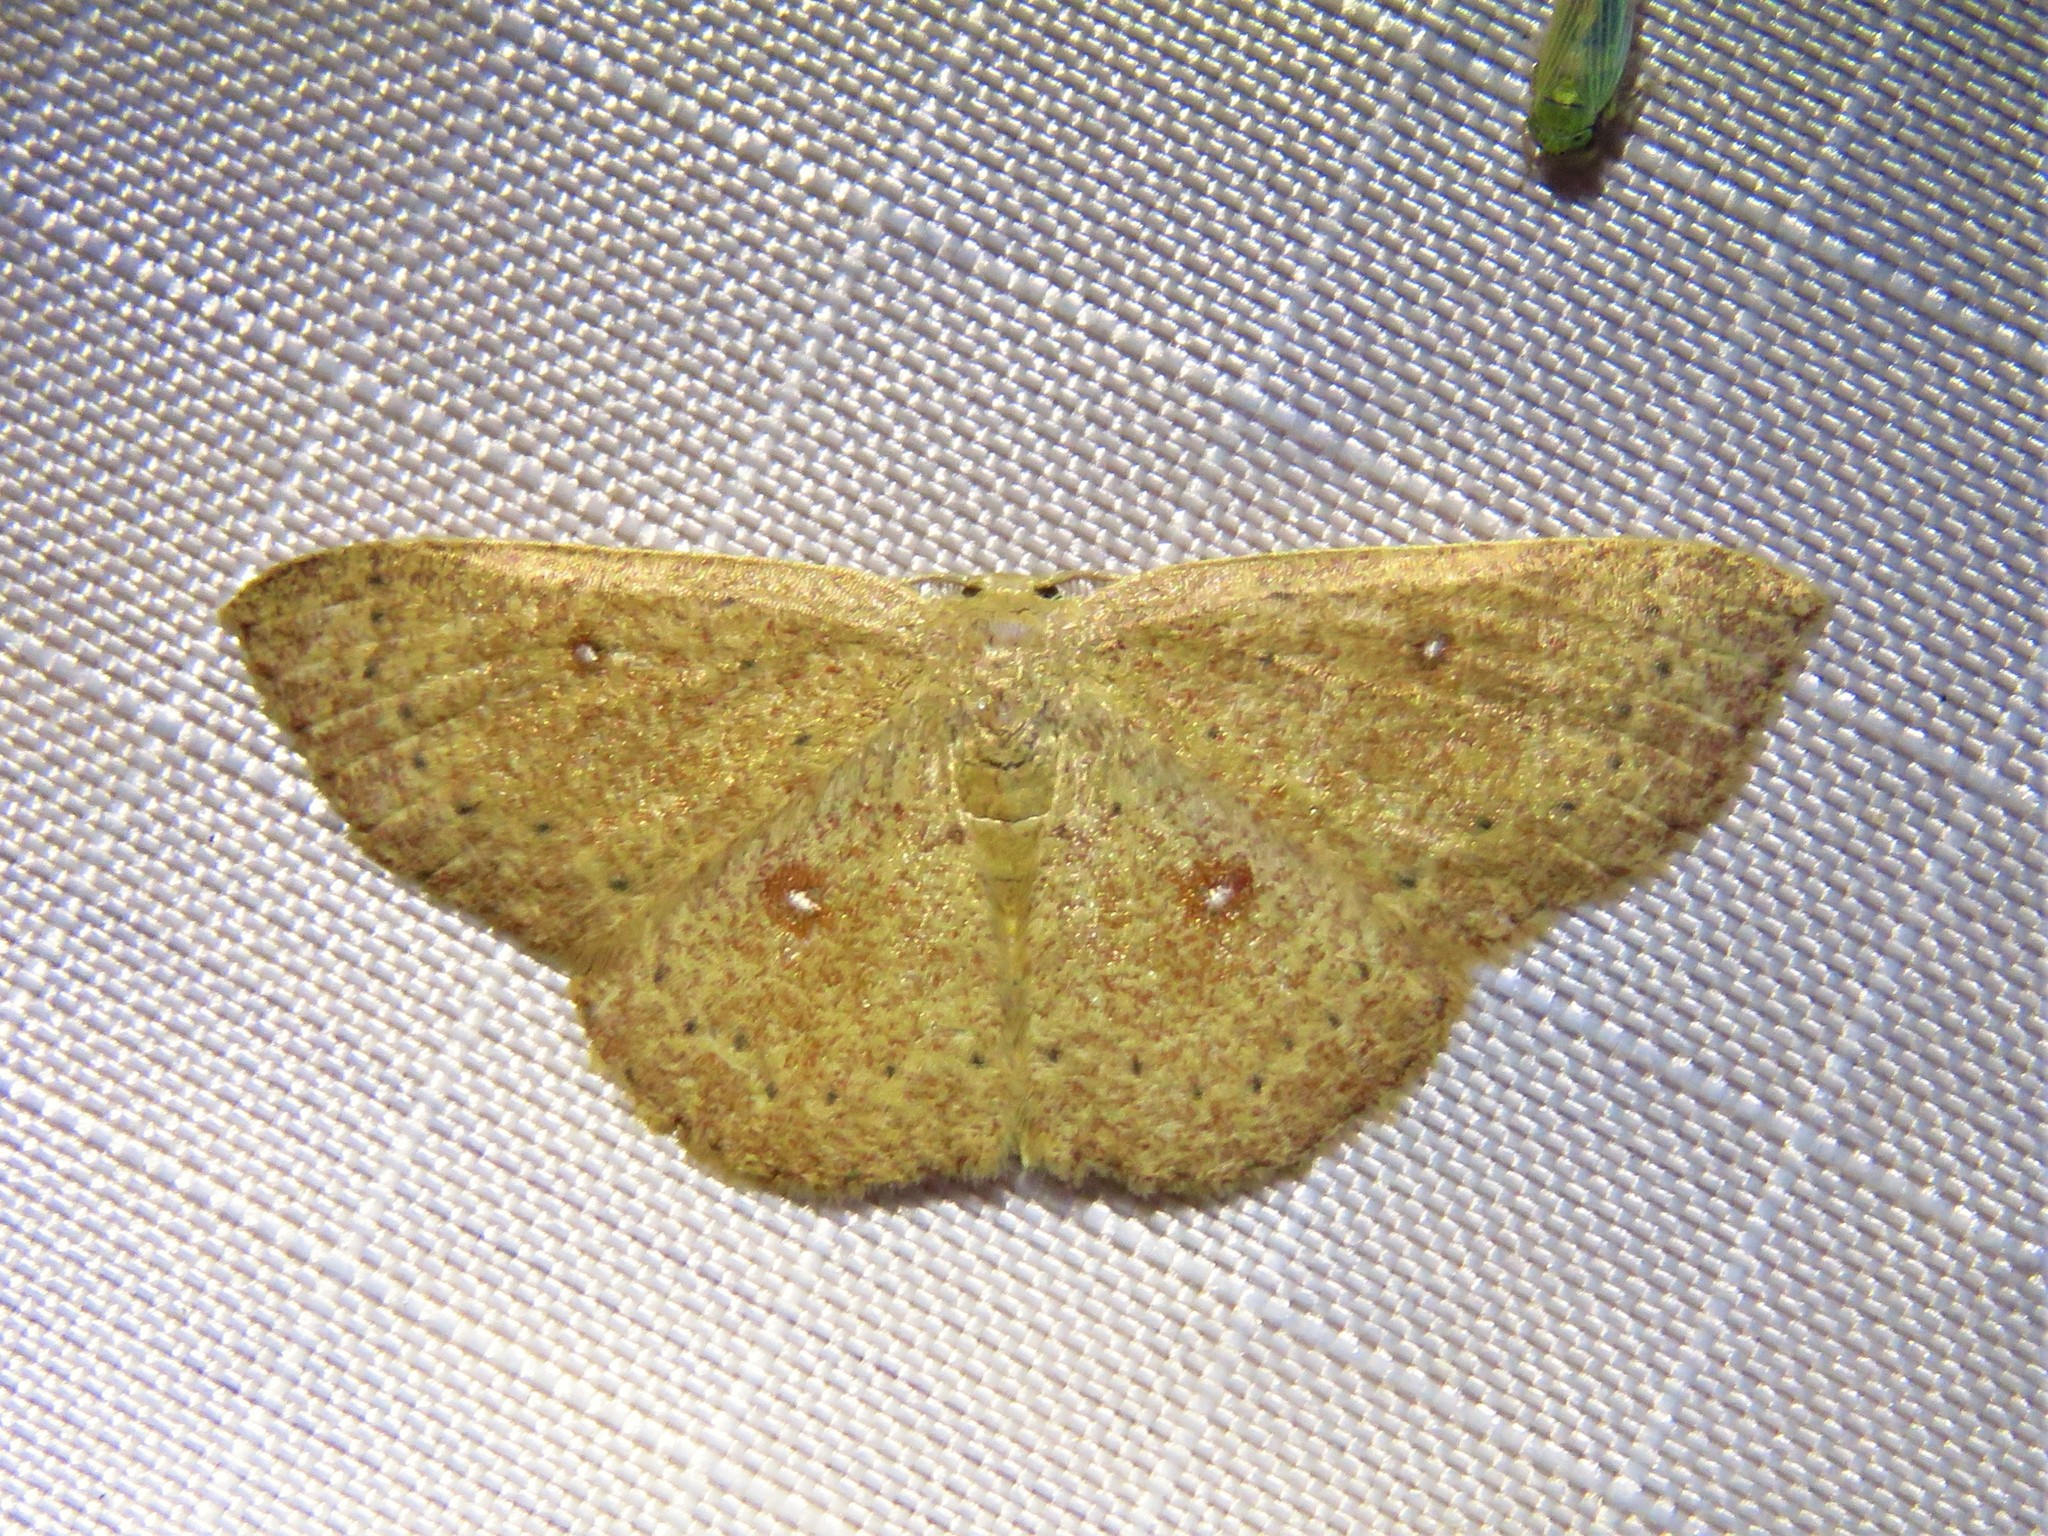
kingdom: Animalia
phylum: Arthropoda
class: Insecta
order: Lepidoptera
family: Geometridae
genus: Cyclophora
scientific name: Cyclophora packardi
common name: Packard's wave
